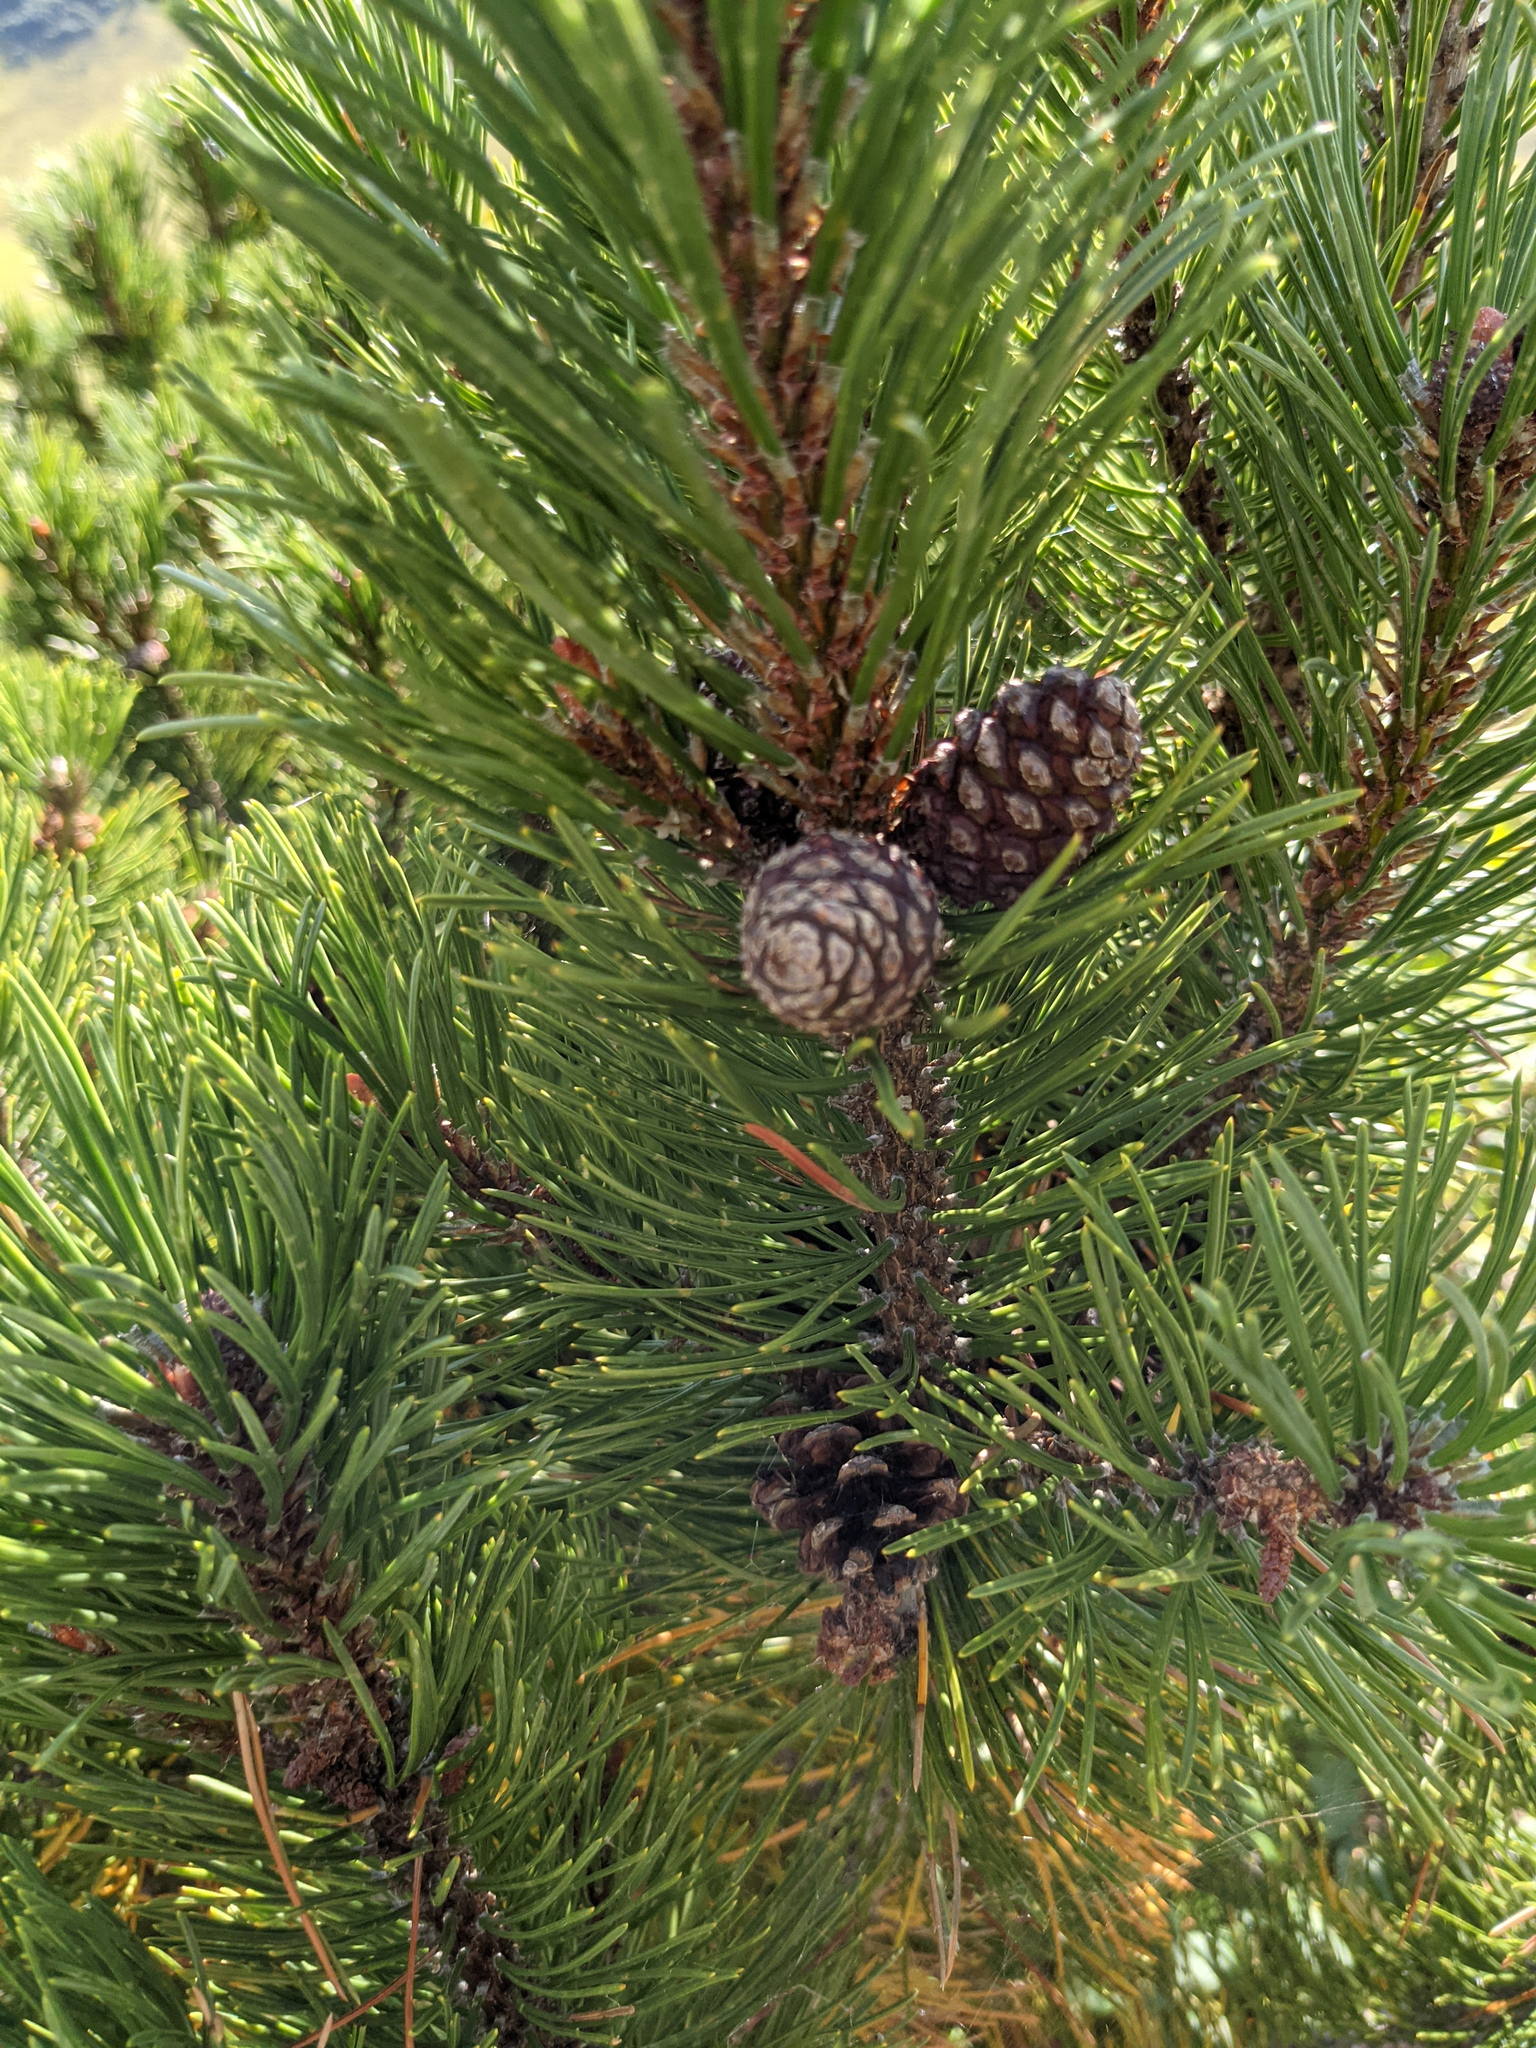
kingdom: Plantae
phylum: Tracheophyta
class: Pinopsida
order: Pinales
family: Pinaceae
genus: Pinus
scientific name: Pinus mugo
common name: Mugo pine
